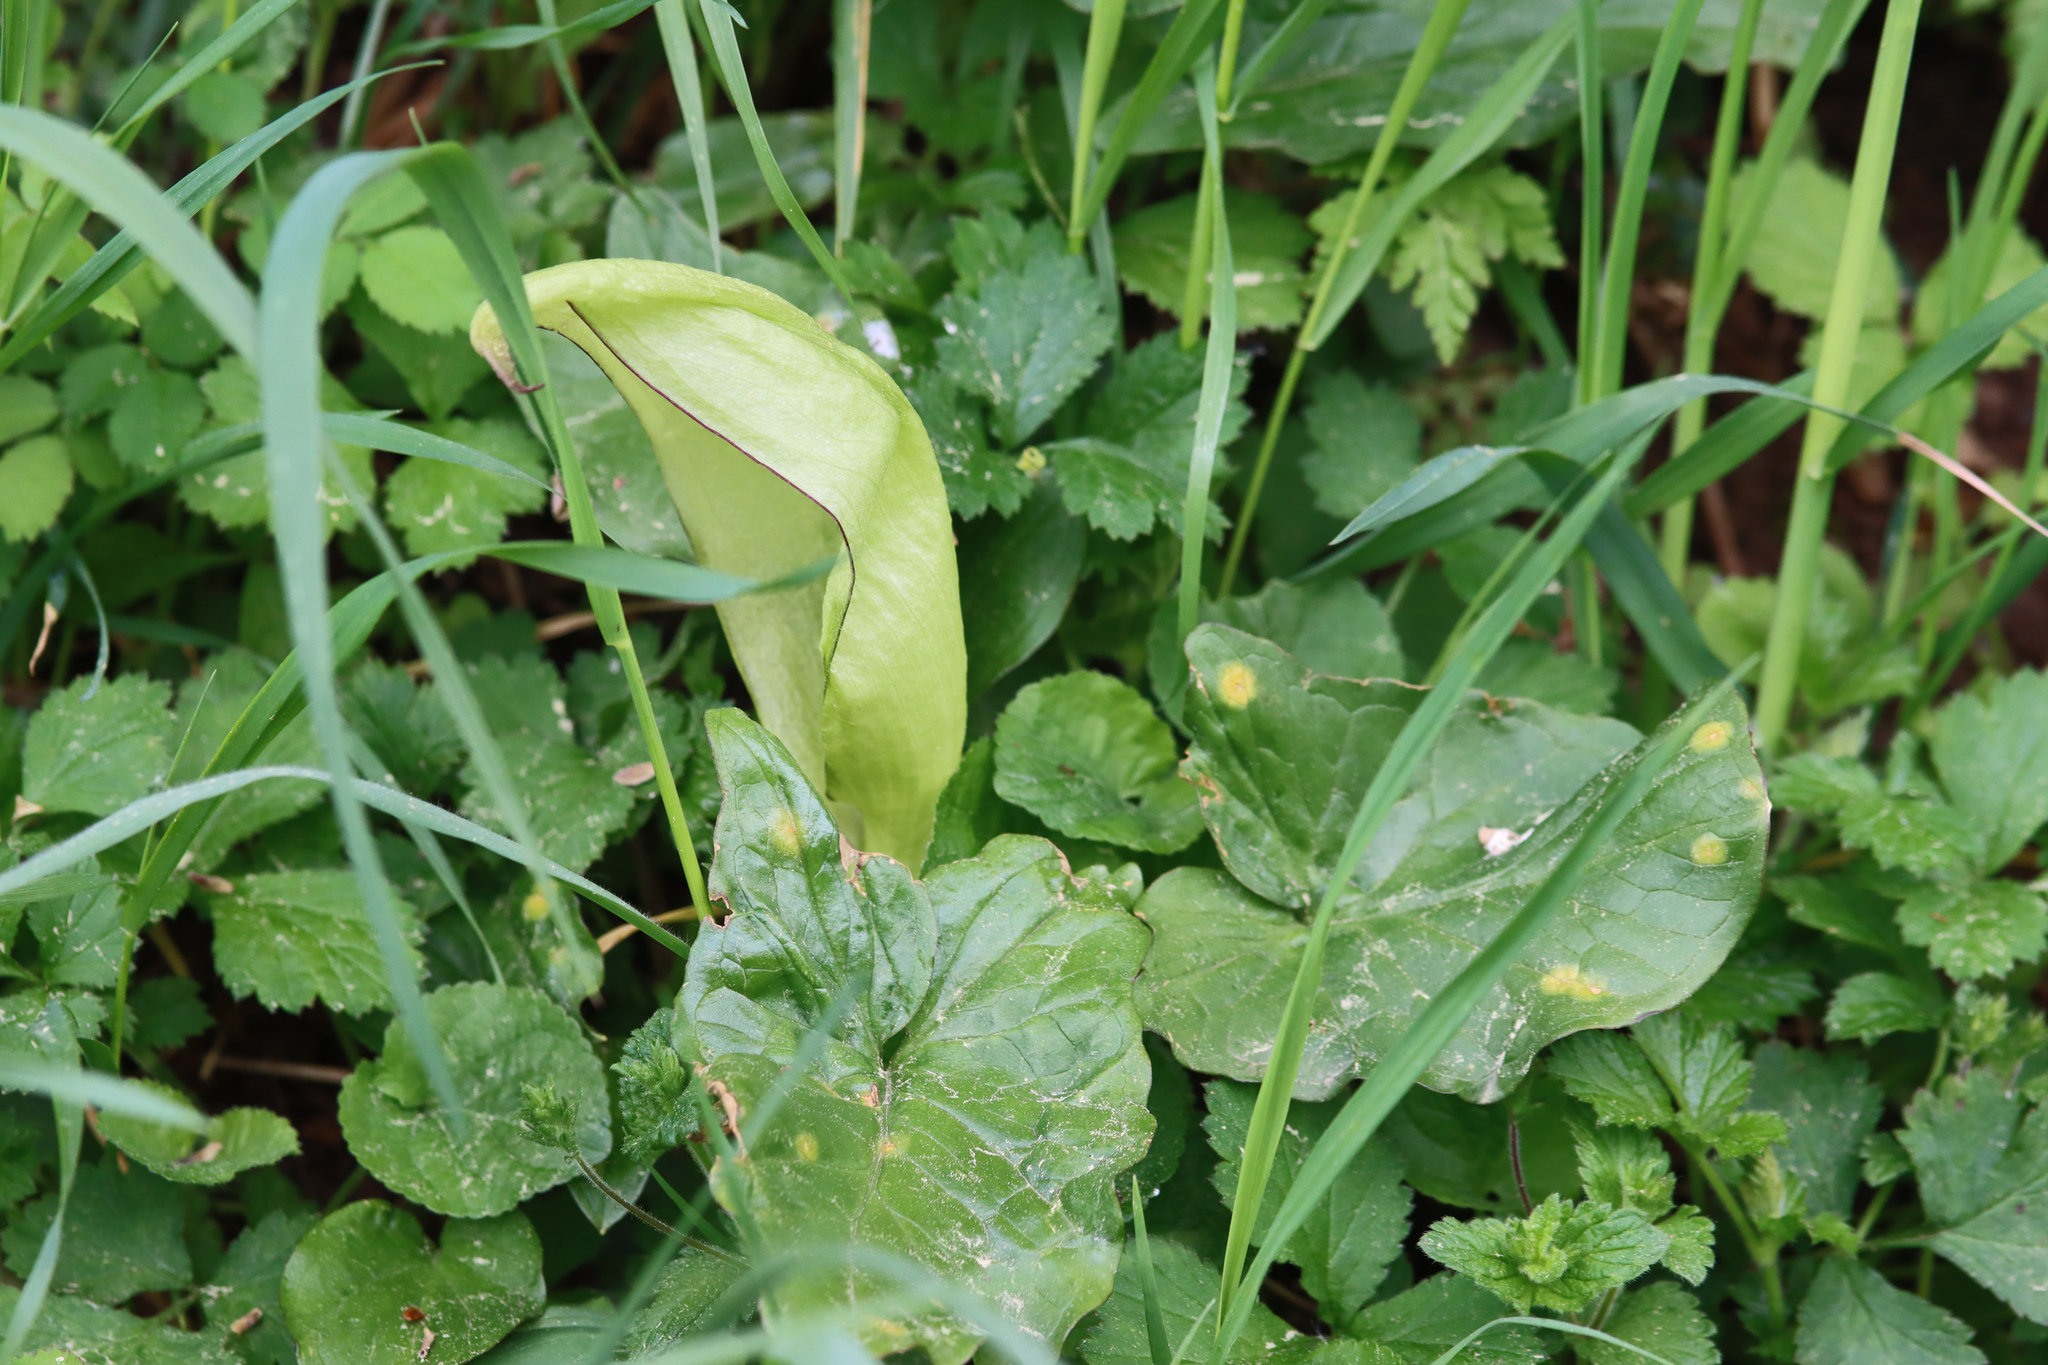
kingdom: Plantae
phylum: Tracheophyta
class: Liliopsida
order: Alismatales
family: Araceae
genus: Arum
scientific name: Arum maculatum
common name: Lords-and-ladies
